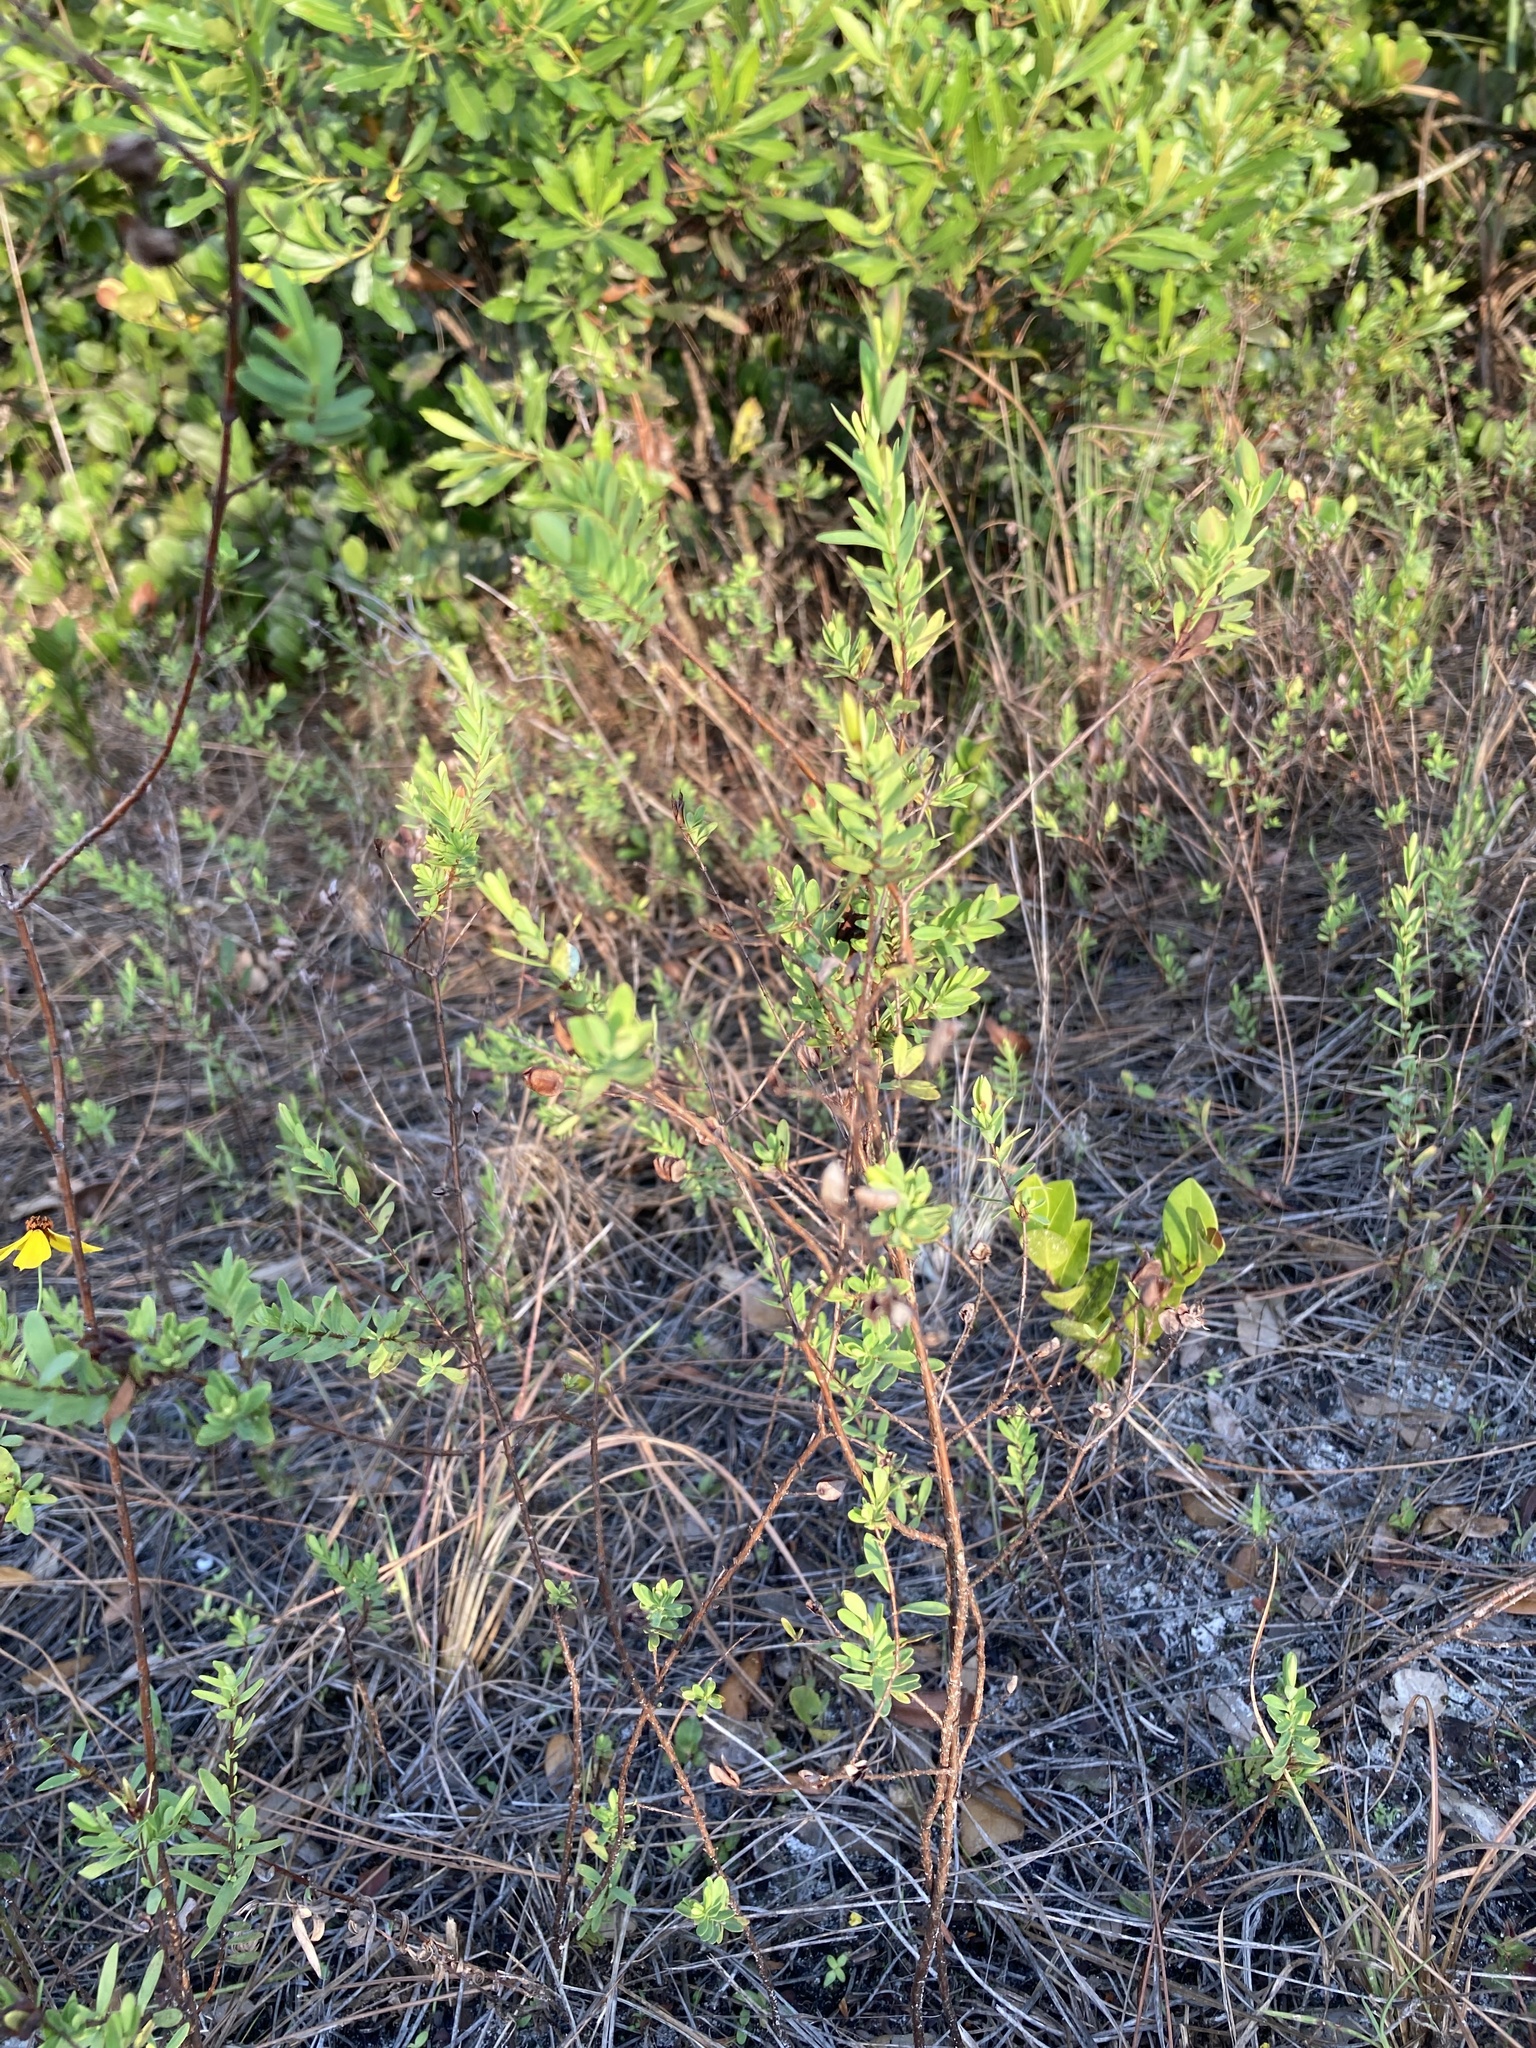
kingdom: Plantae
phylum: Tracheophyta
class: Magnoliopsida
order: Malpighiales
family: Hypericaceae
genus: Hypericum
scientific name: Hypericum hypericoides
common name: St. andrew's cross
